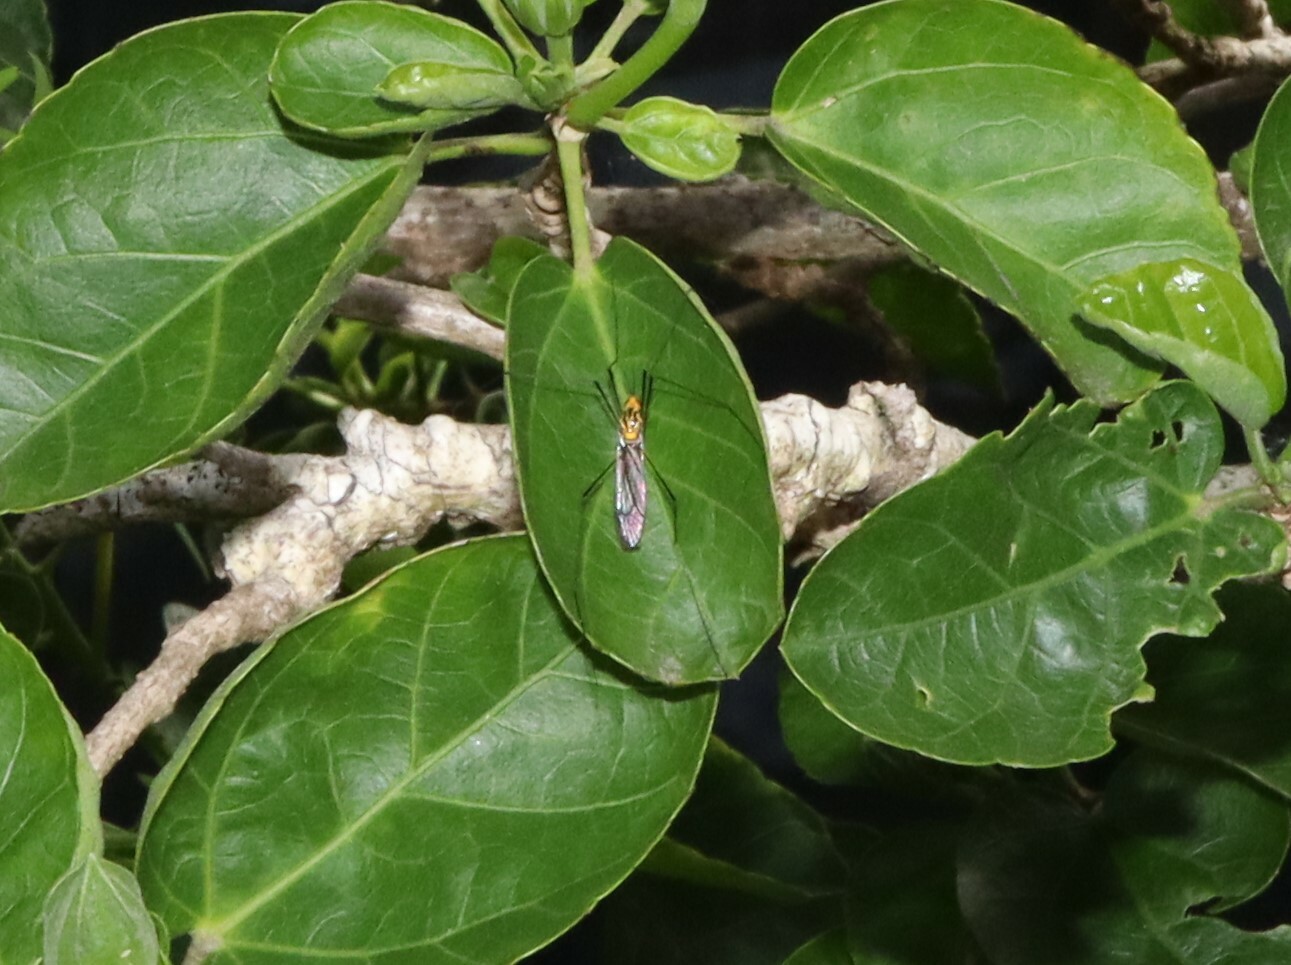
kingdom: Animalia
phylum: Arthropoda
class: Insecta
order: Diptera
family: Tipulidae
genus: Nephrotoma
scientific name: Nephrotoma australasiae
